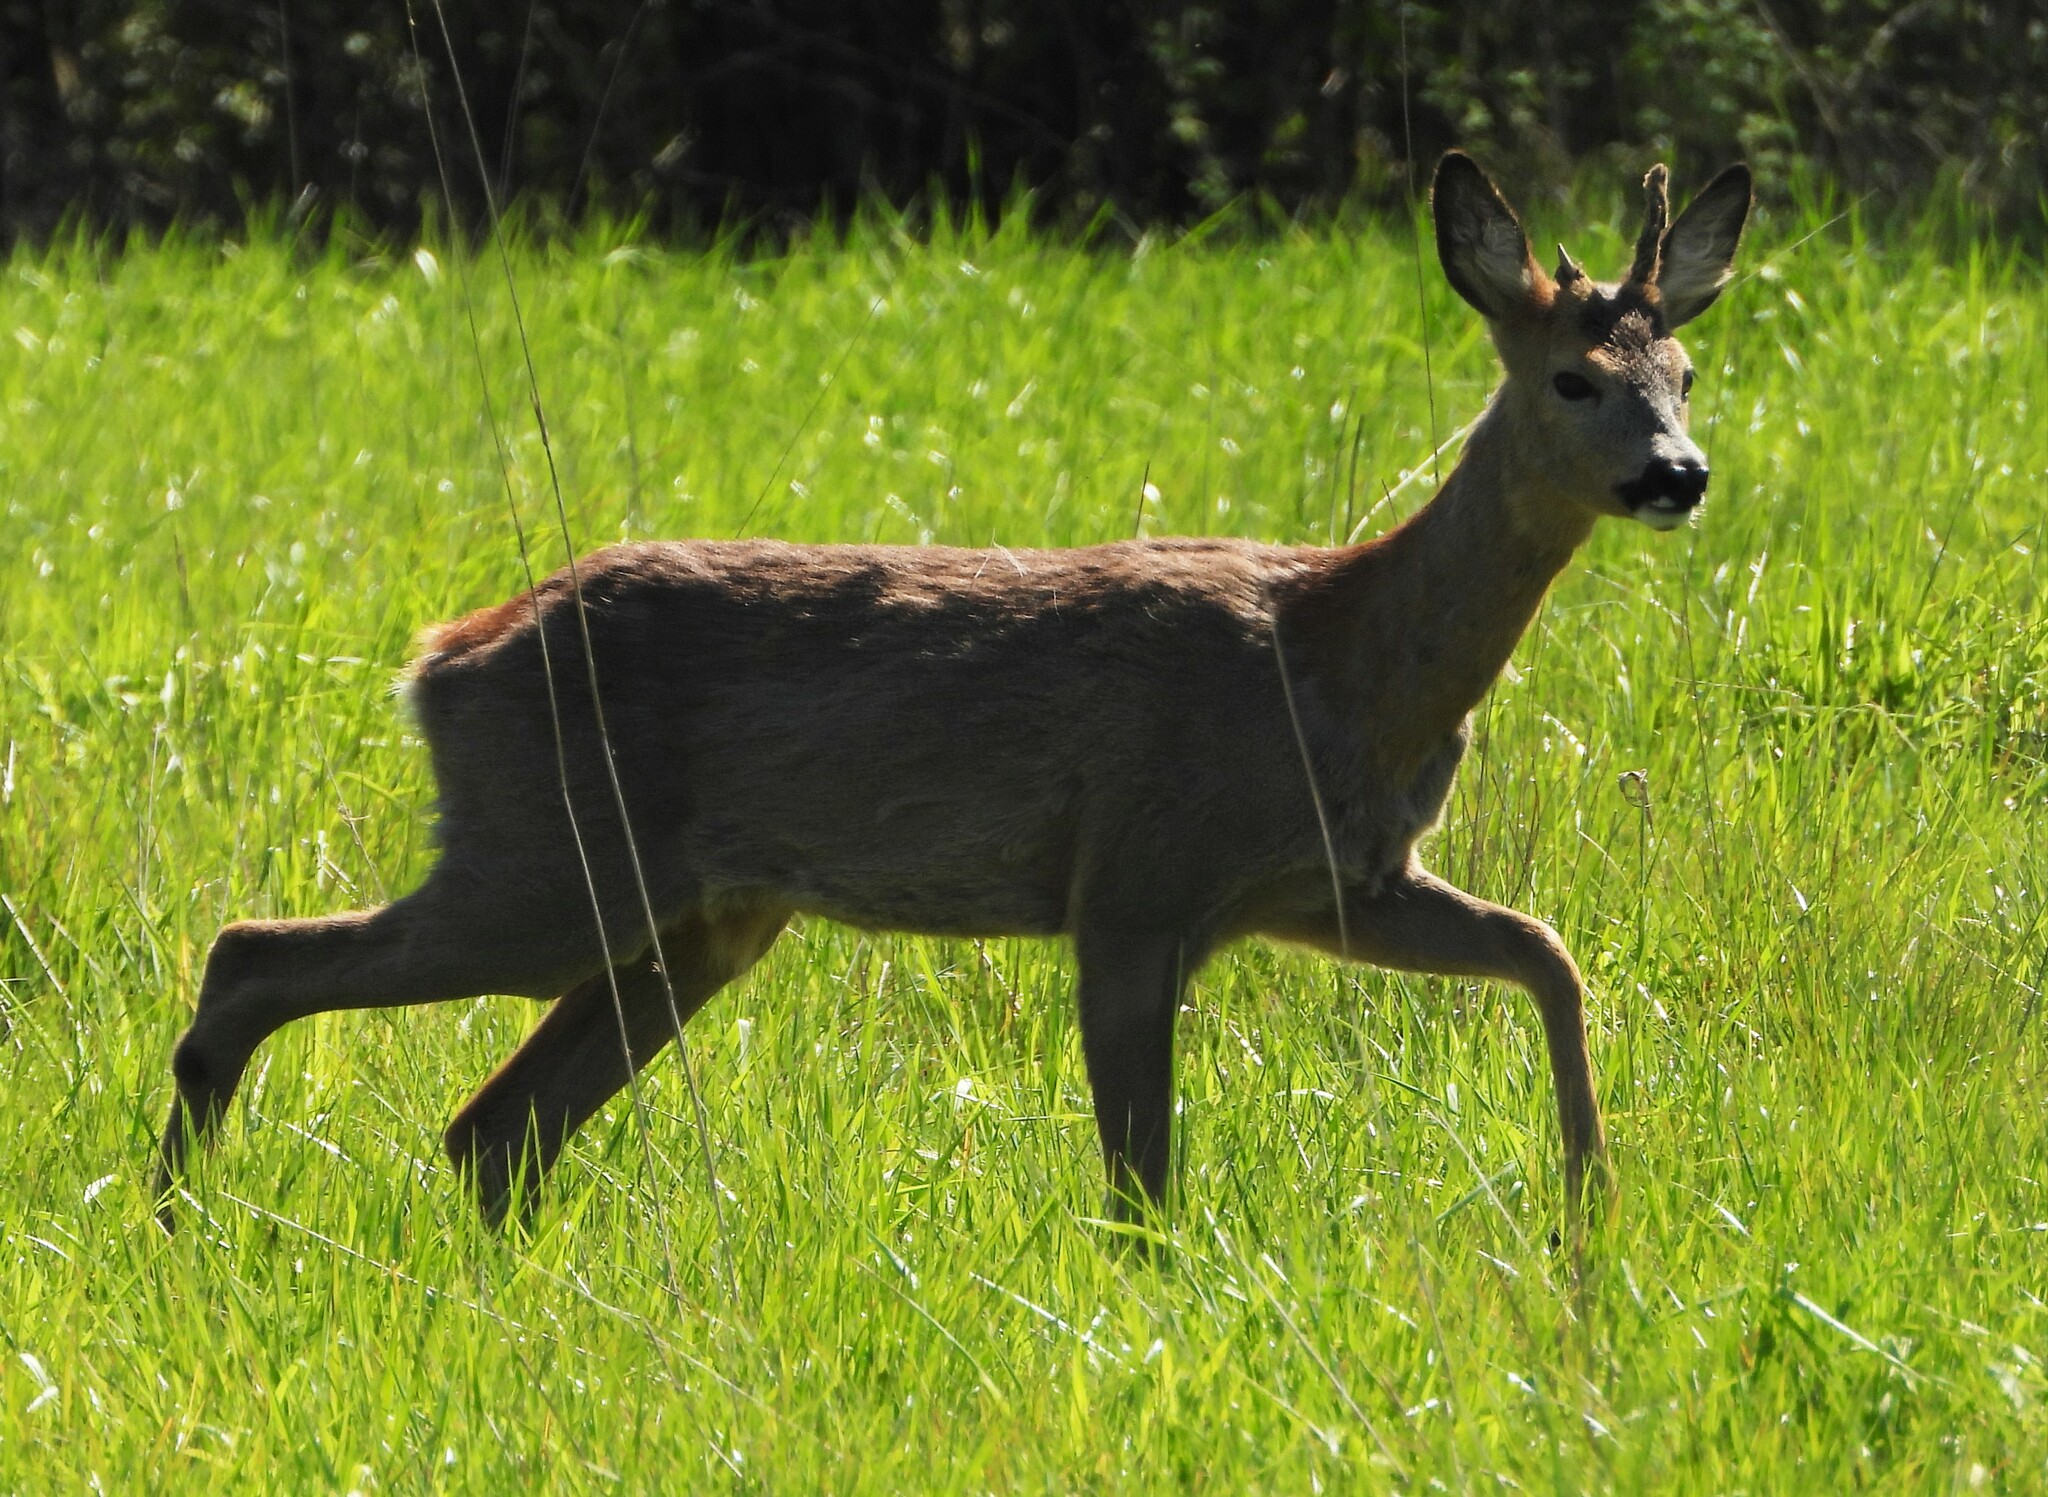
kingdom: Animalia
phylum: Chordata
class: Mammalia
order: Artiodactyla
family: Cervidae
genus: Capreolus
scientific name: Capreolus capreolus
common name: Western roe deer
